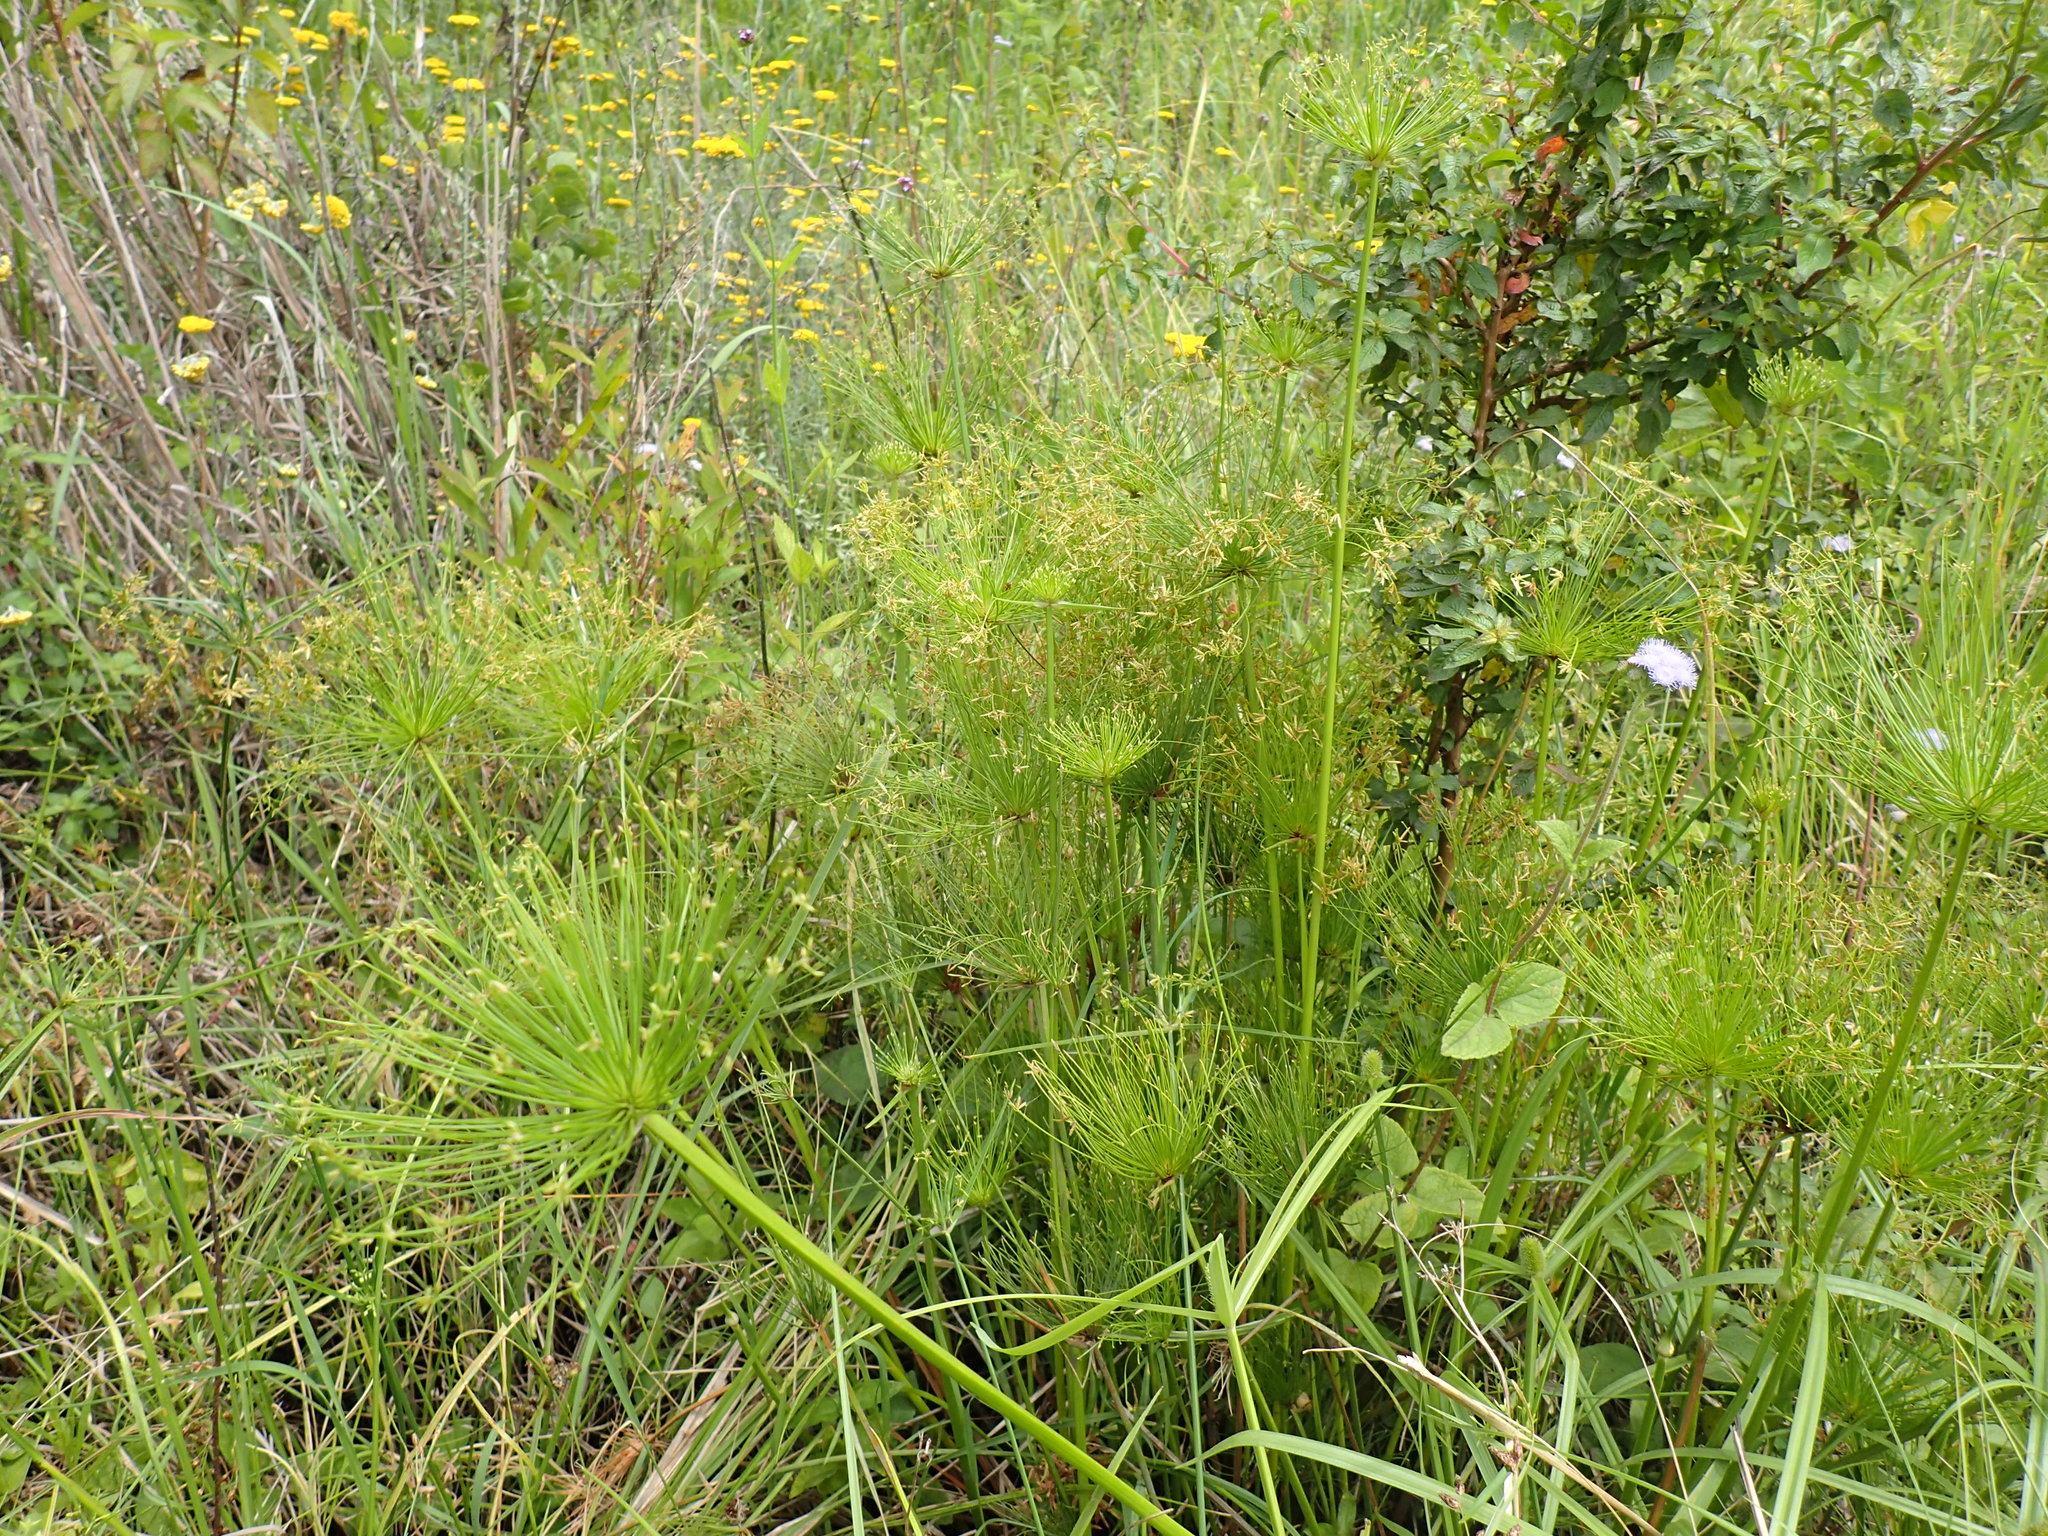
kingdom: Plantae
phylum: Tracheophyta
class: Liliopsida
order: Poales
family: Cyperaceae
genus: Cyperus
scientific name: Cyperus prolifer
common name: Miniature flatsedge
